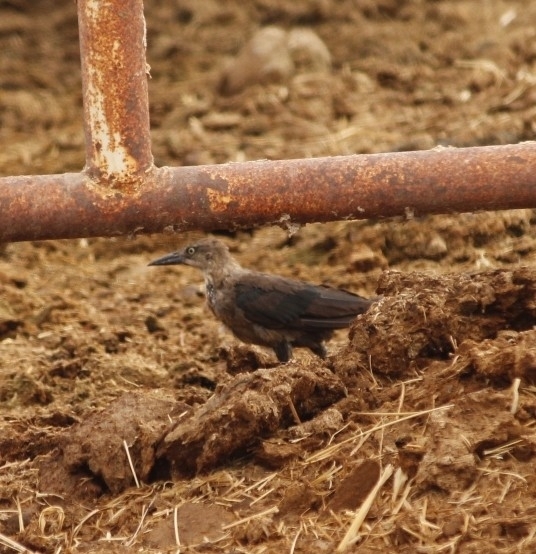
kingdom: Animalia
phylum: Chordata
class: Aves
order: Passeriformes
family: Icteridae
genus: Quiscalus
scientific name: Quiscalus mexicanus
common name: Great-tailed grackle
